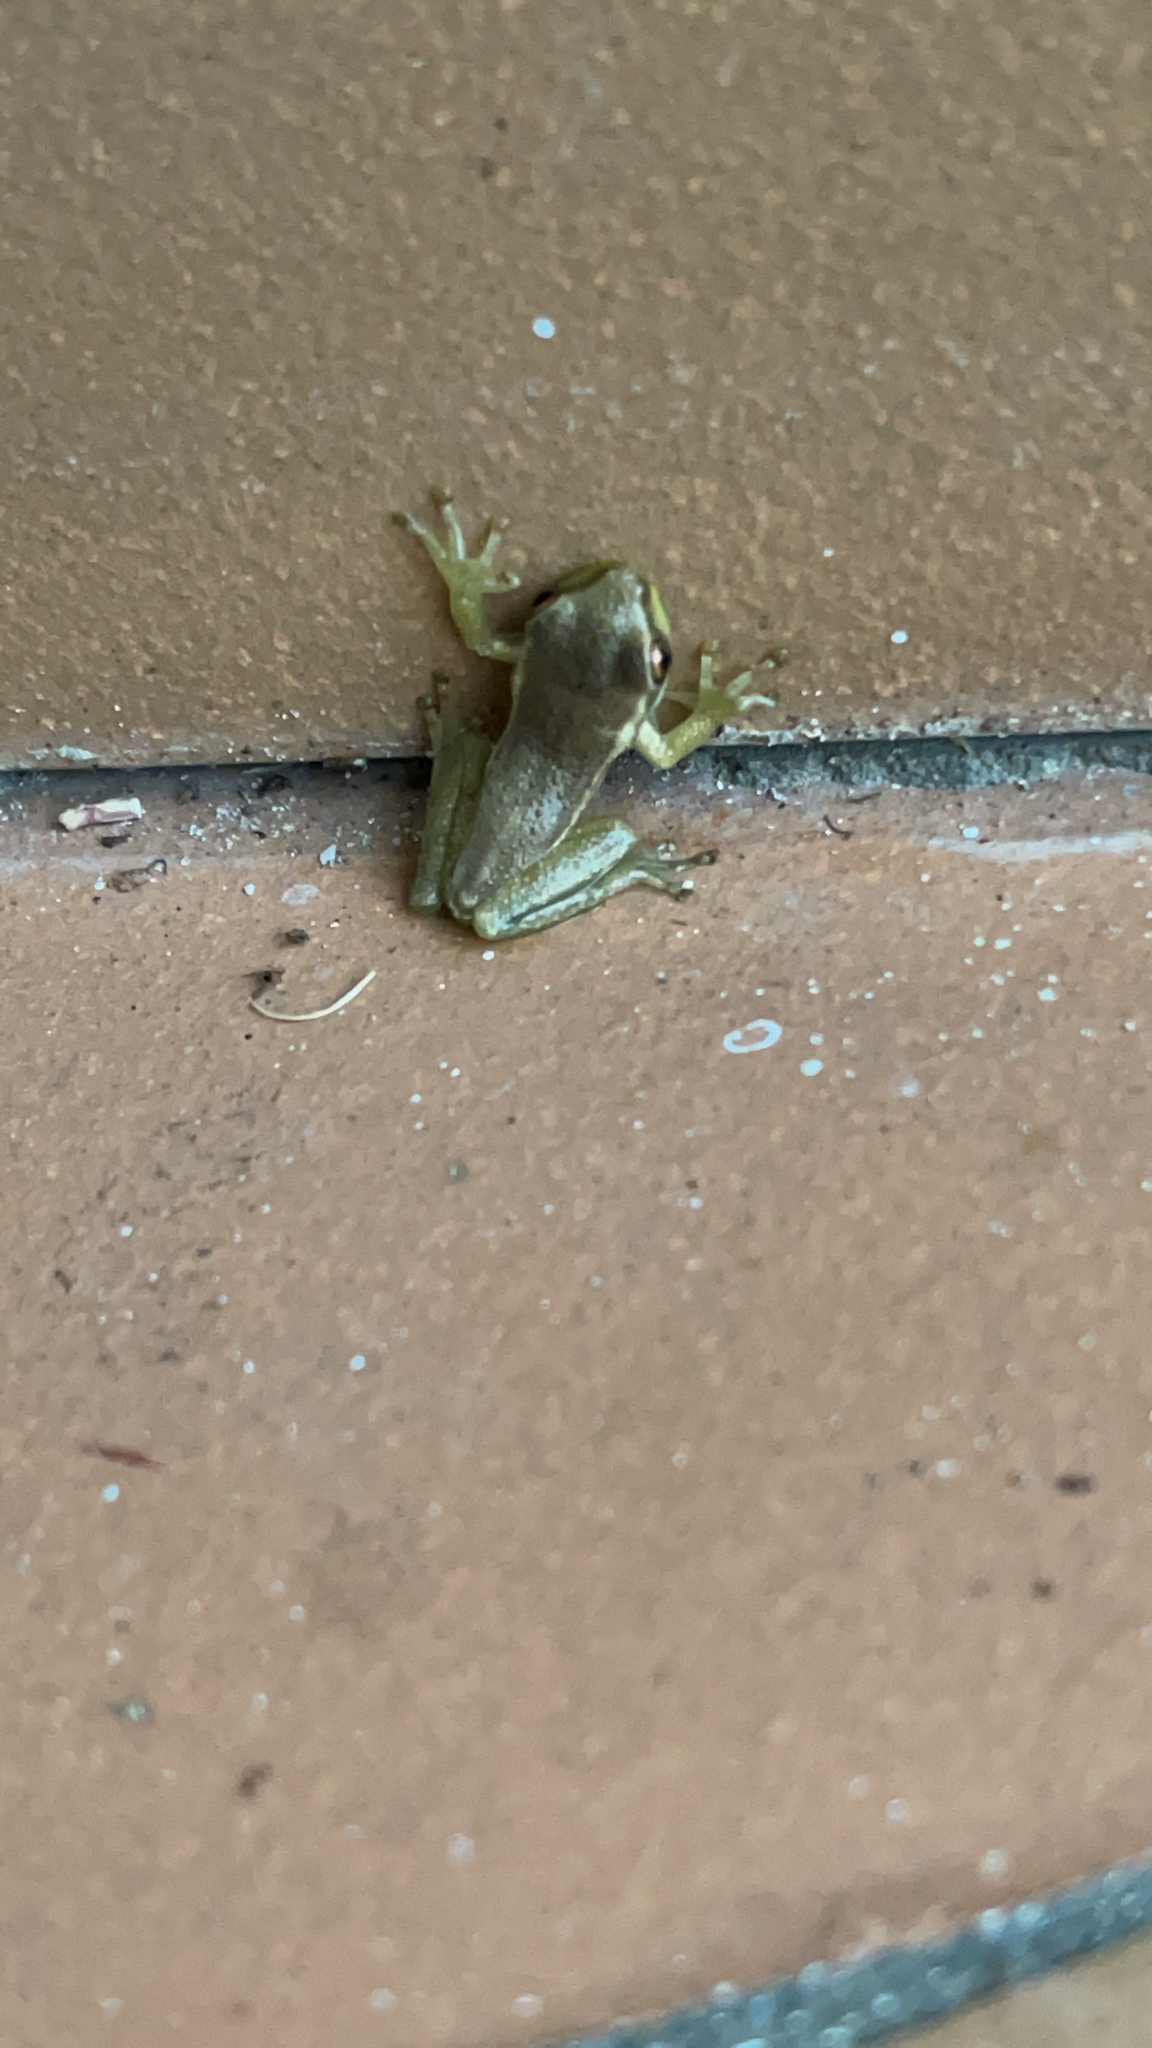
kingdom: Animalia
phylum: Chordata
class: Amphibia
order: Anura
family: Hylidae
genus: Osteopilus
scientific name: Osteopilus septentrionalis
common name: Cuban treefrog
